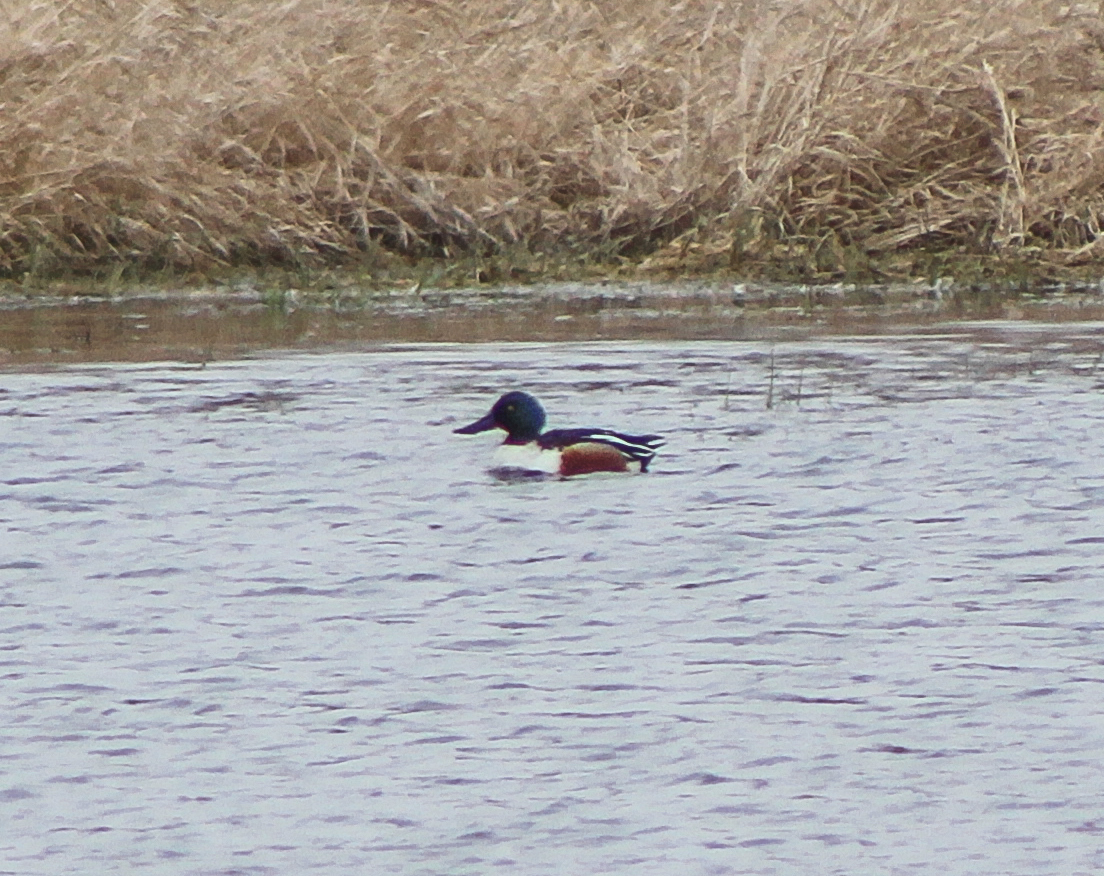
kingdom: Animalia
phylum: Chordata
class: Aves
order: Anseriformes
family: Anatidae
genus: Spatula
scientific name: Spatula clypeata
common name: Northern shoveler
